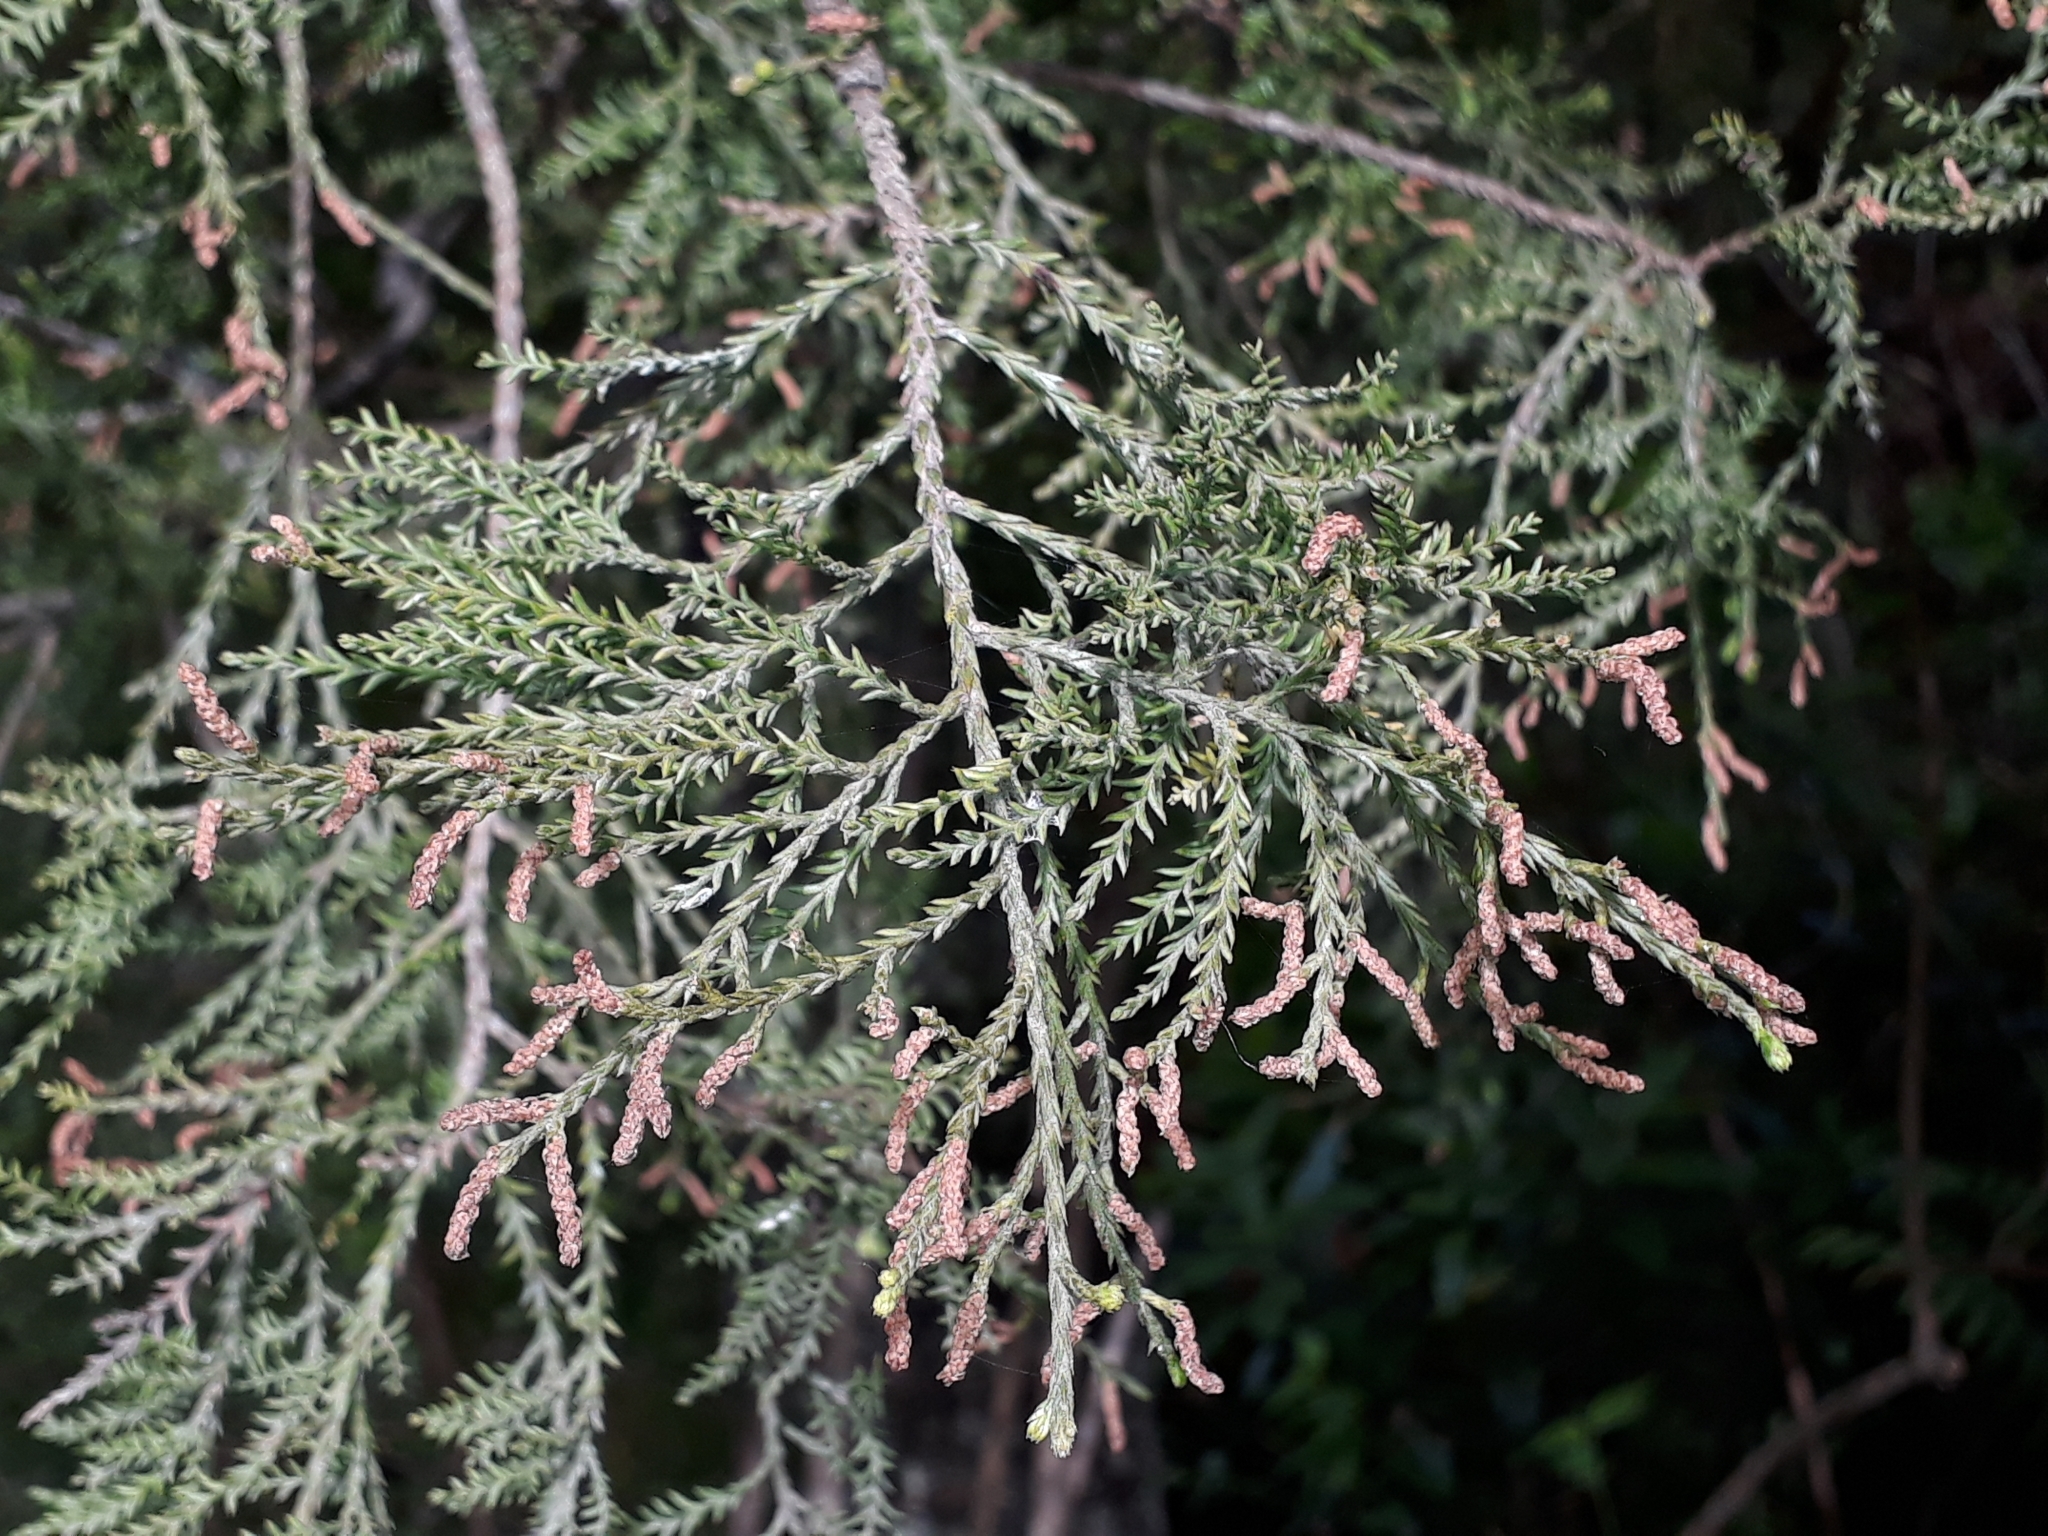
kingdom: Plantae
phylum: Tracheophyta
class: Pinopsida
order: Pinales
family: Podocarpaceae
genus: Dacrycarpus
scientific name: Dacrycarpus dacrydioides
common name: White pine
